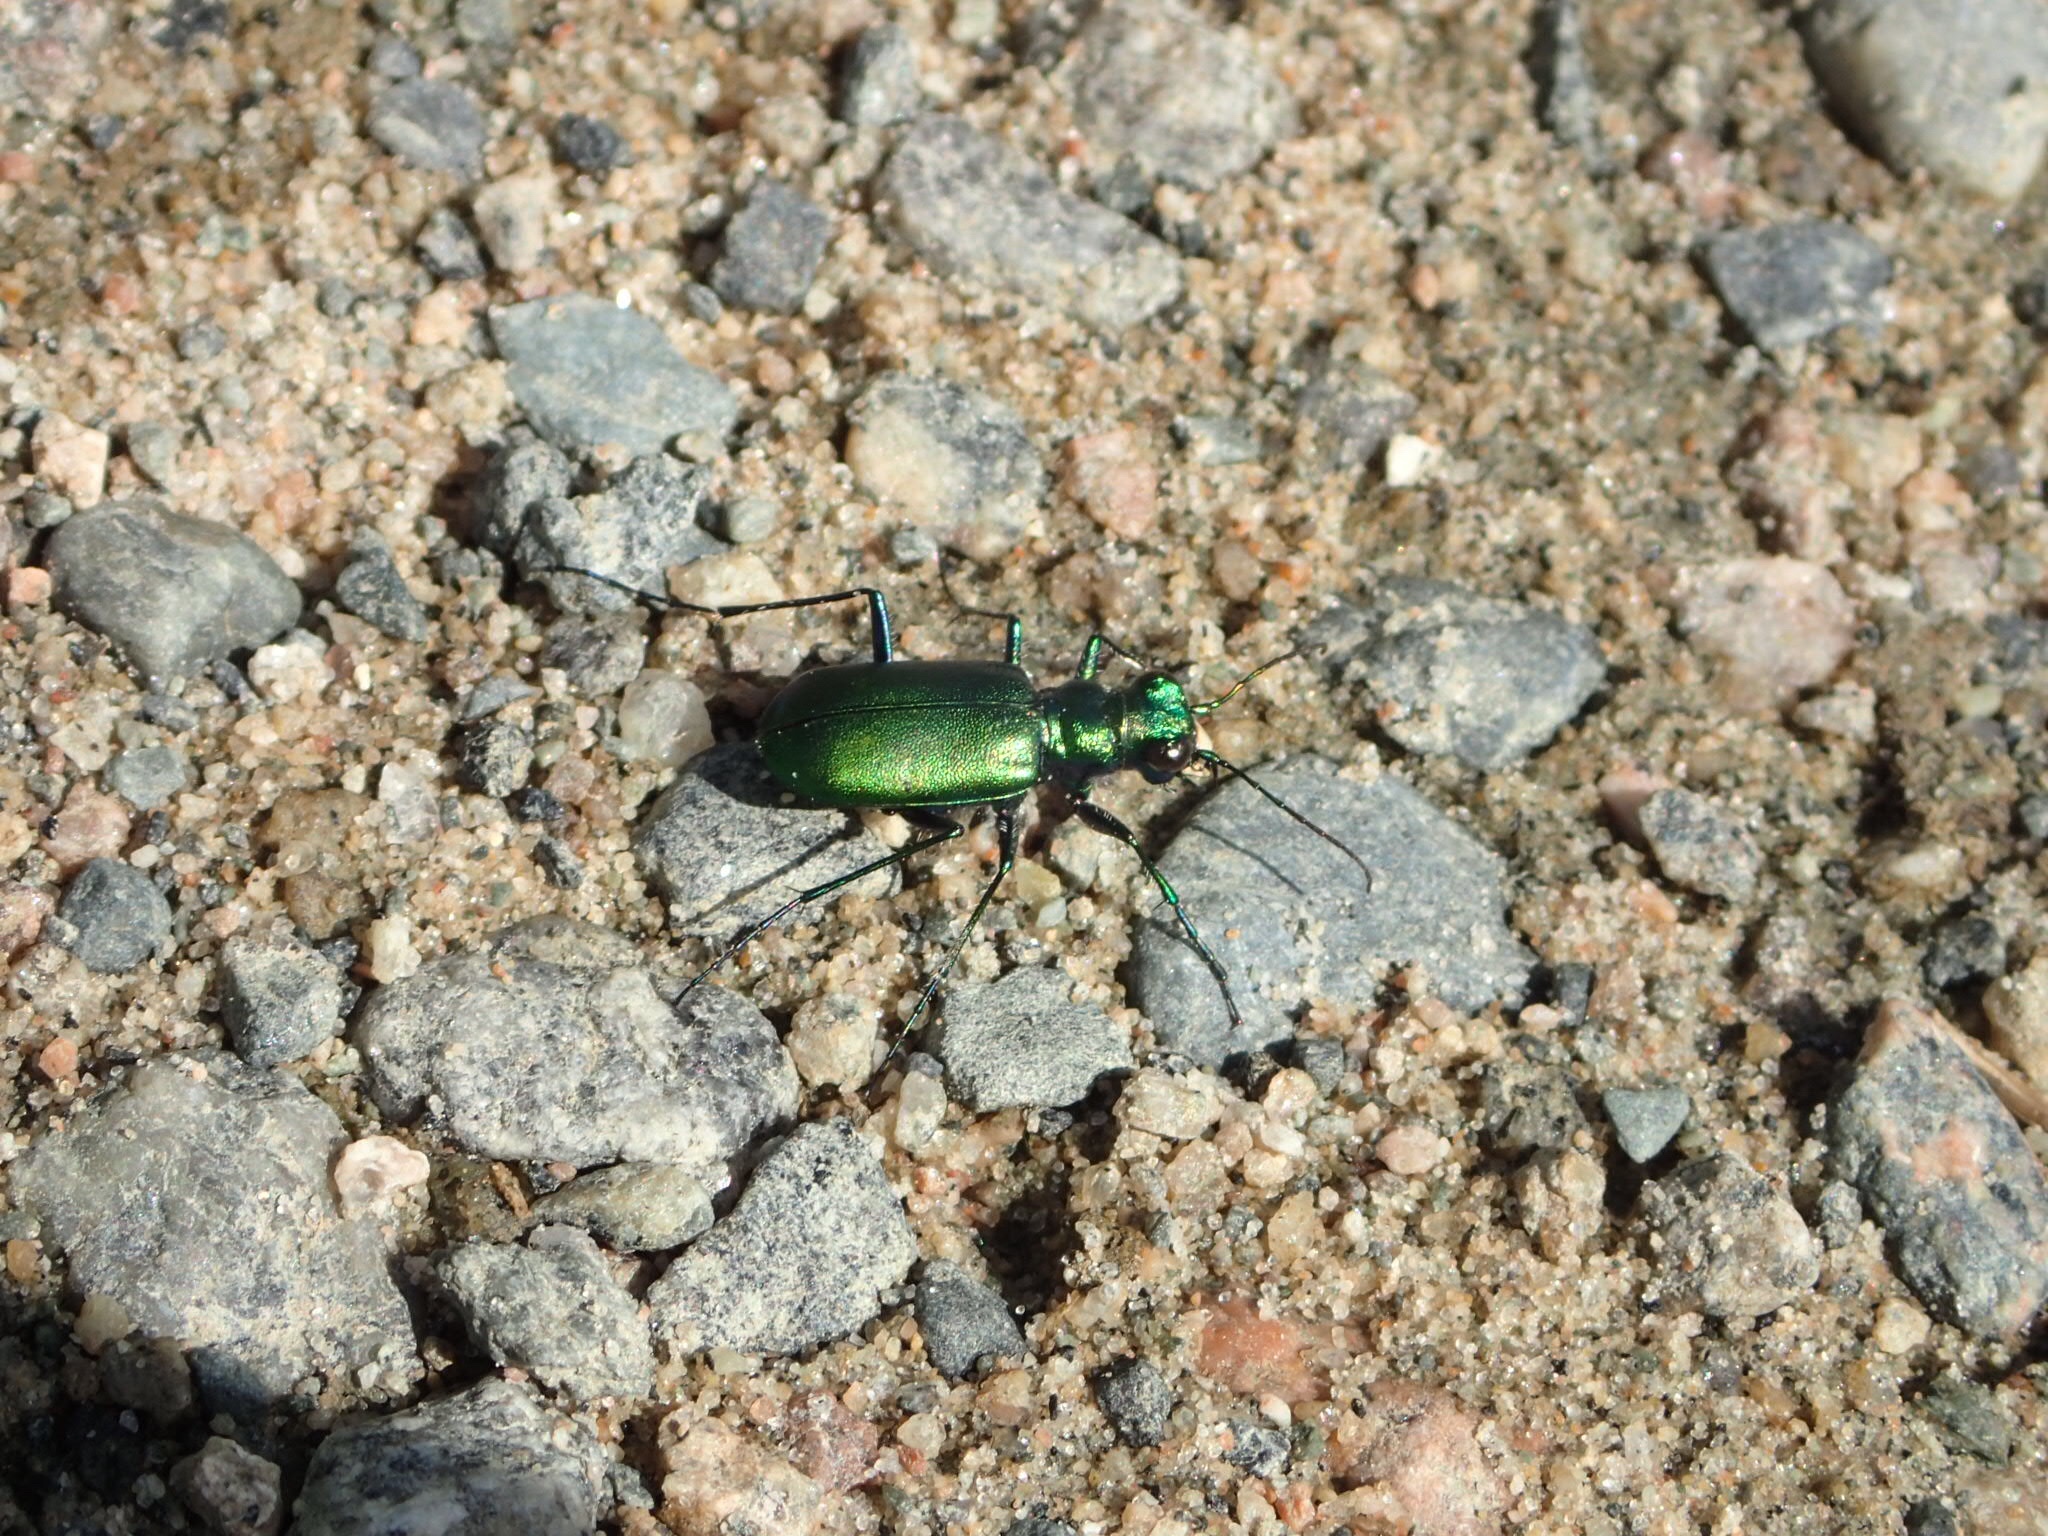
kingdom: Animalia
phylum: Arthropoda
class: Insecta
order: Coleoptera
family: Carabidae
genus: Cicindela
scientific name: Cicindela denikei
